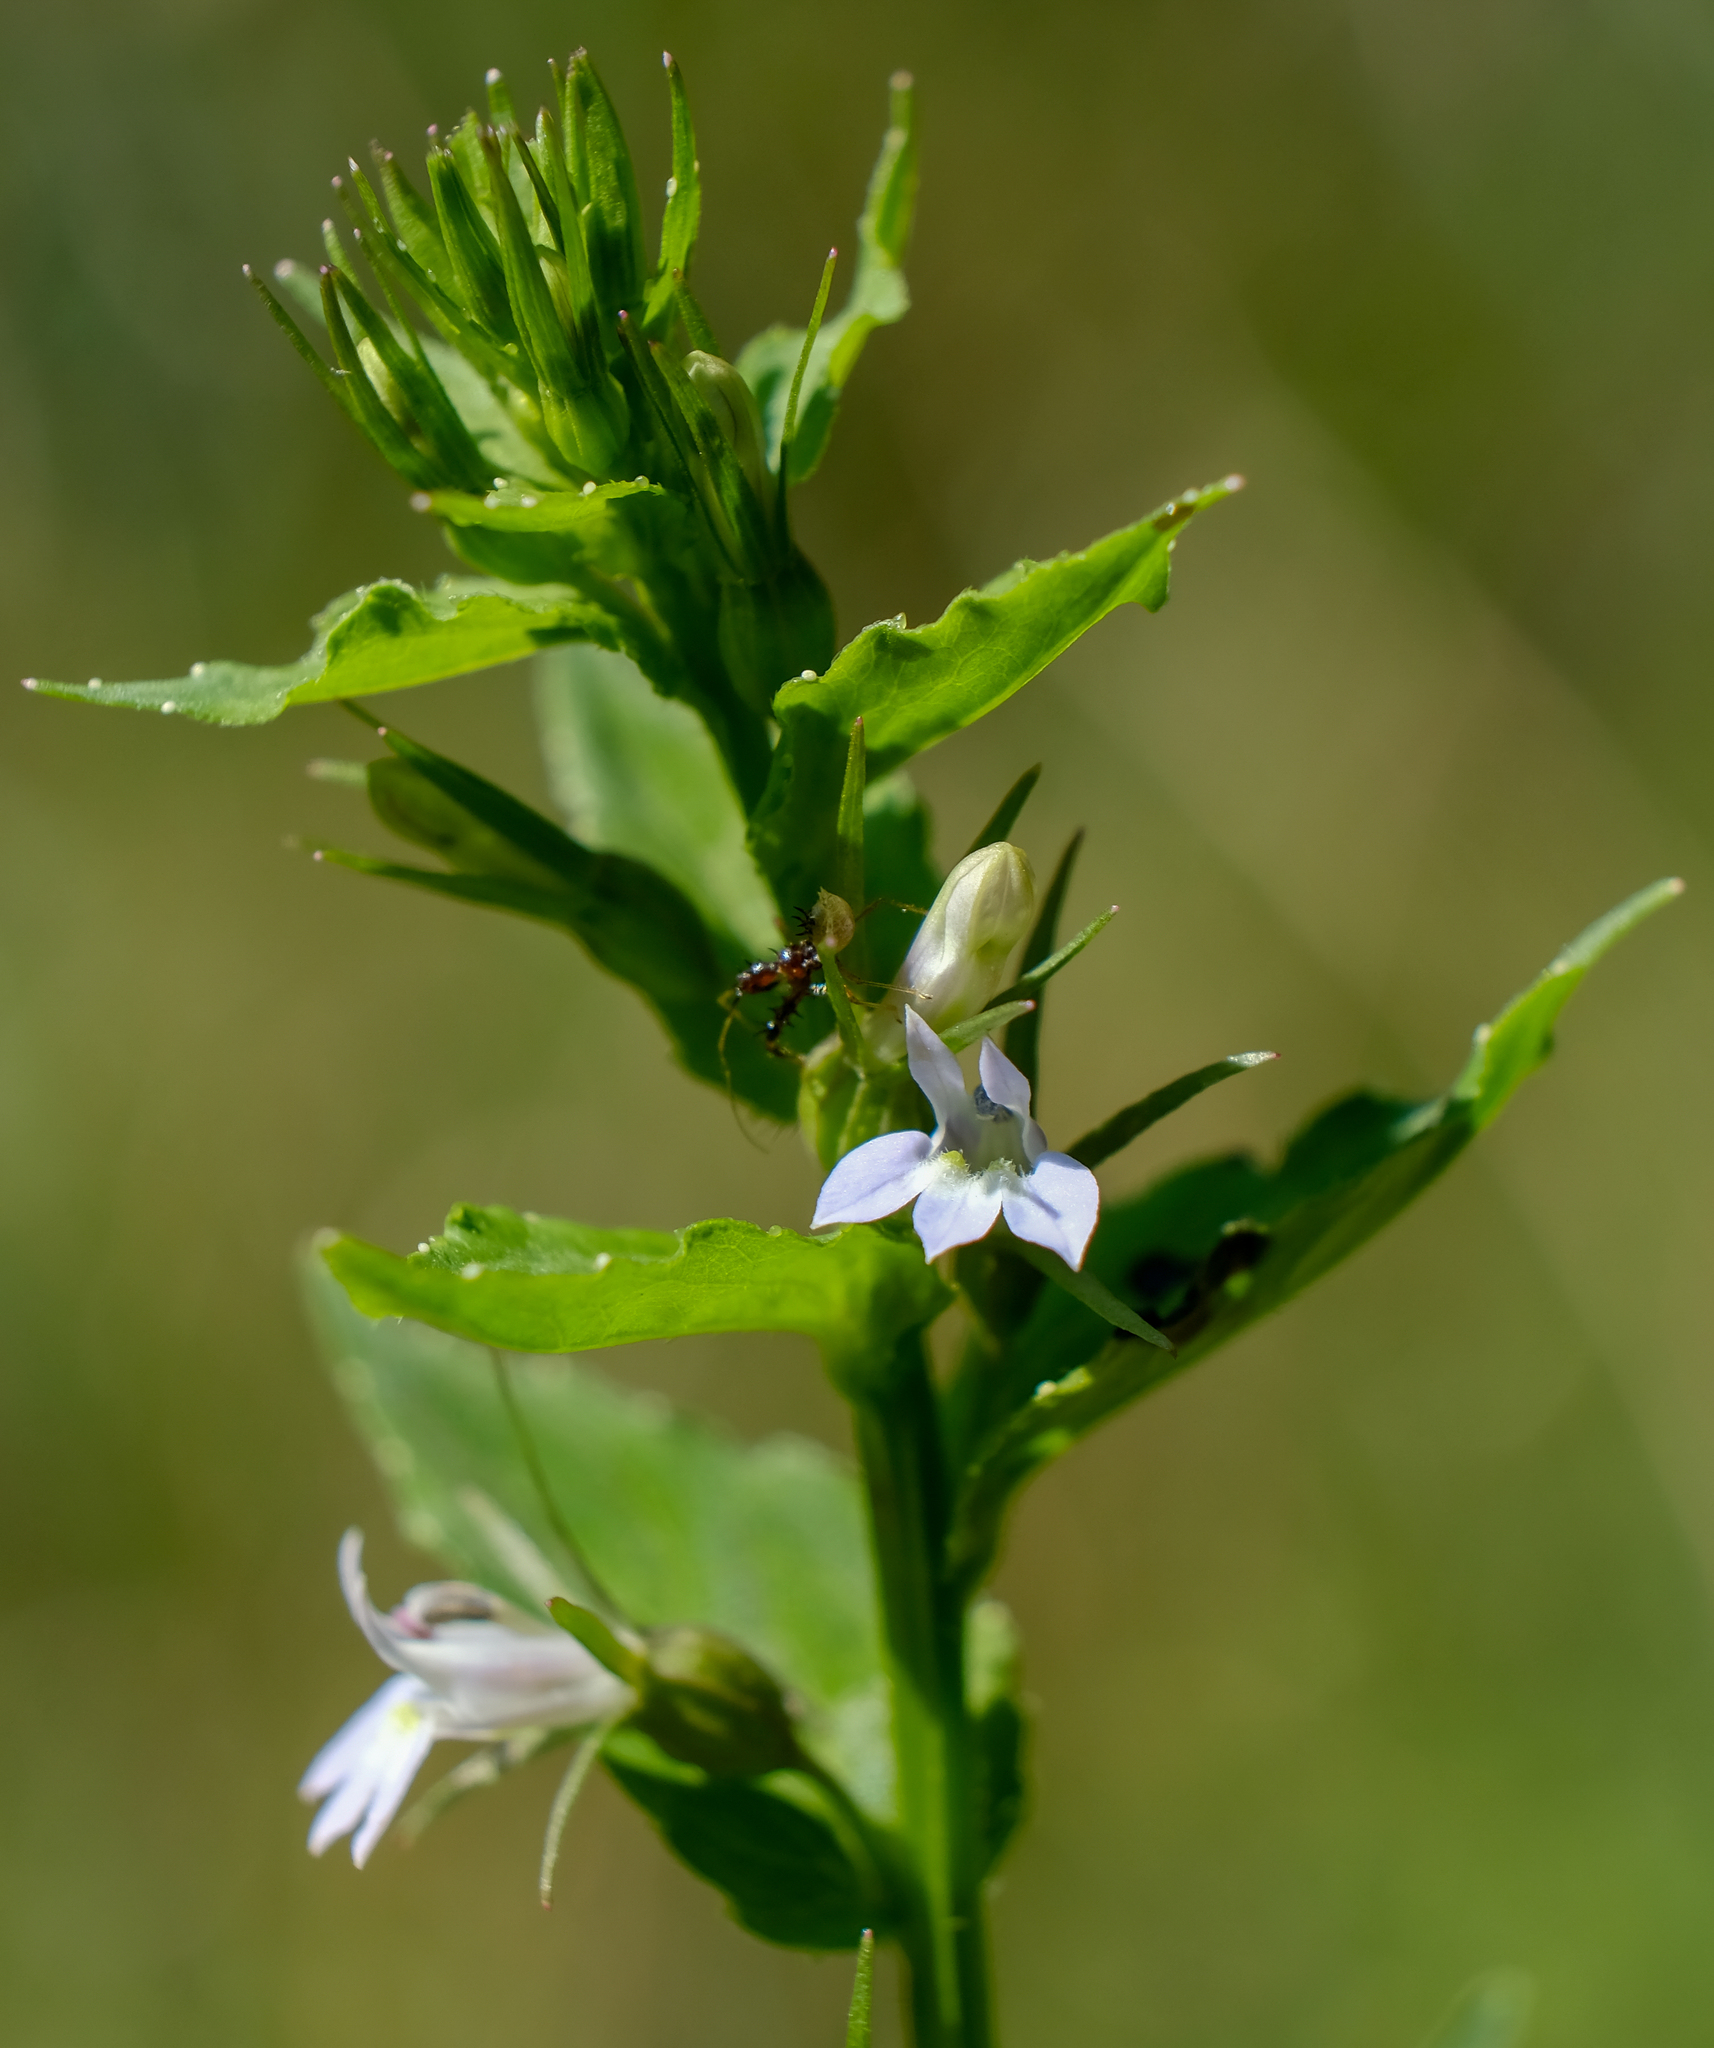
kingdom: Plantae
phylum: Tracheophyta
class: Magnoliopsida
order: Asterales
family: Campanulaceae
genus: Lobelia
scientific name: Lobelia inflata
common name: Indian tobacco
